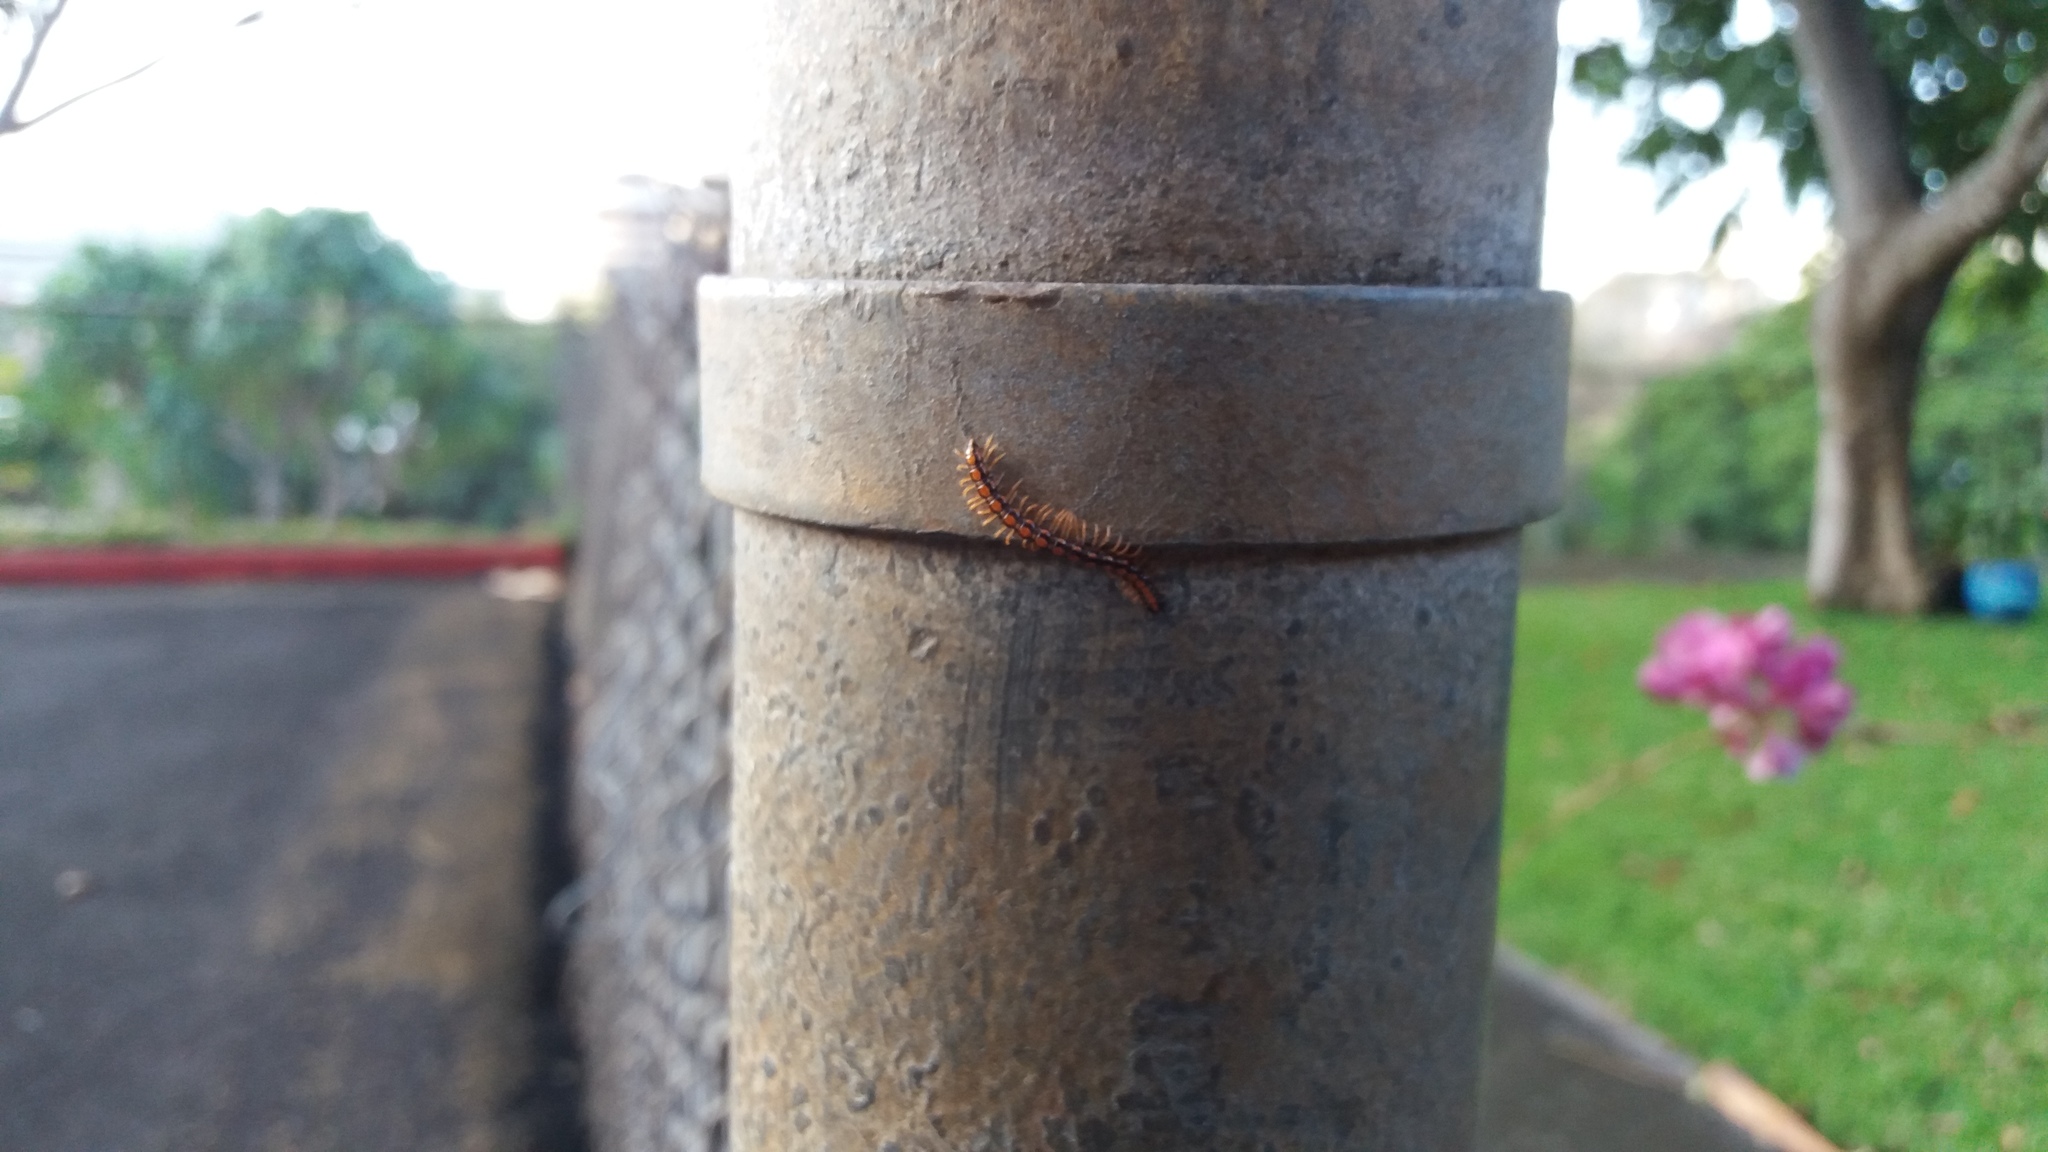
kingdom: Animalia
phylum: Arthropoda
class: Diplopoda
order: Polydesmida
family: Paradoxosomatidae
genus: Helicorthomorpha
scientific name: Helicorthomorpha holstii
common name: Millipede
